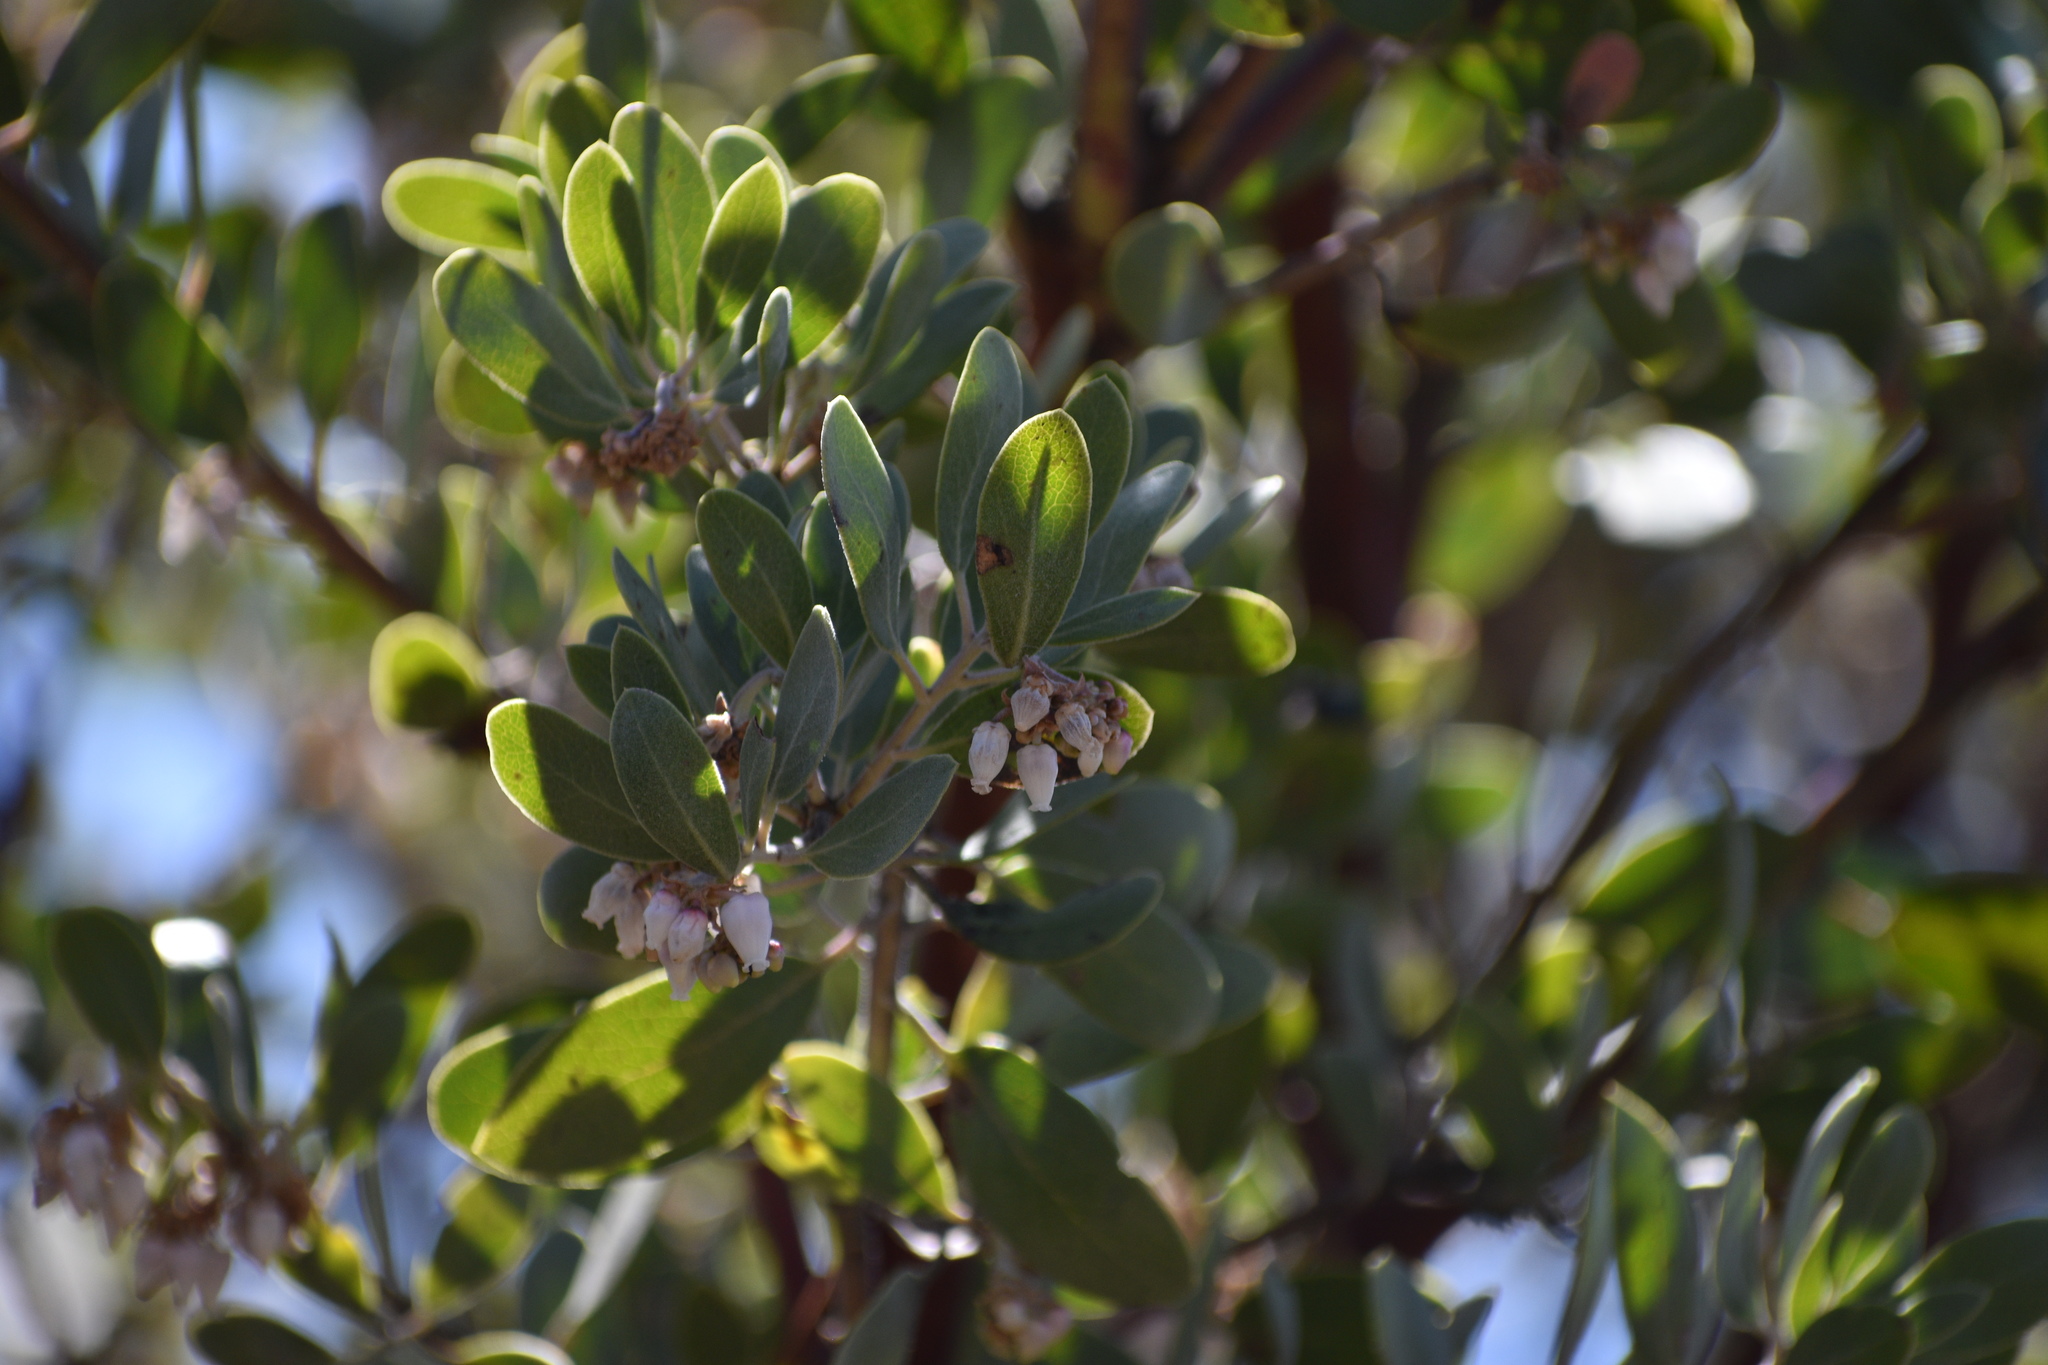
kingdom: Plantae
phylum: Tracheophyta
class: Magnoliopsida
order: Ericales
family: Ericaceae
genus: Arctostaphylos
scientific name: Arctostaphylos pungens
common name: Mexican manzanita
